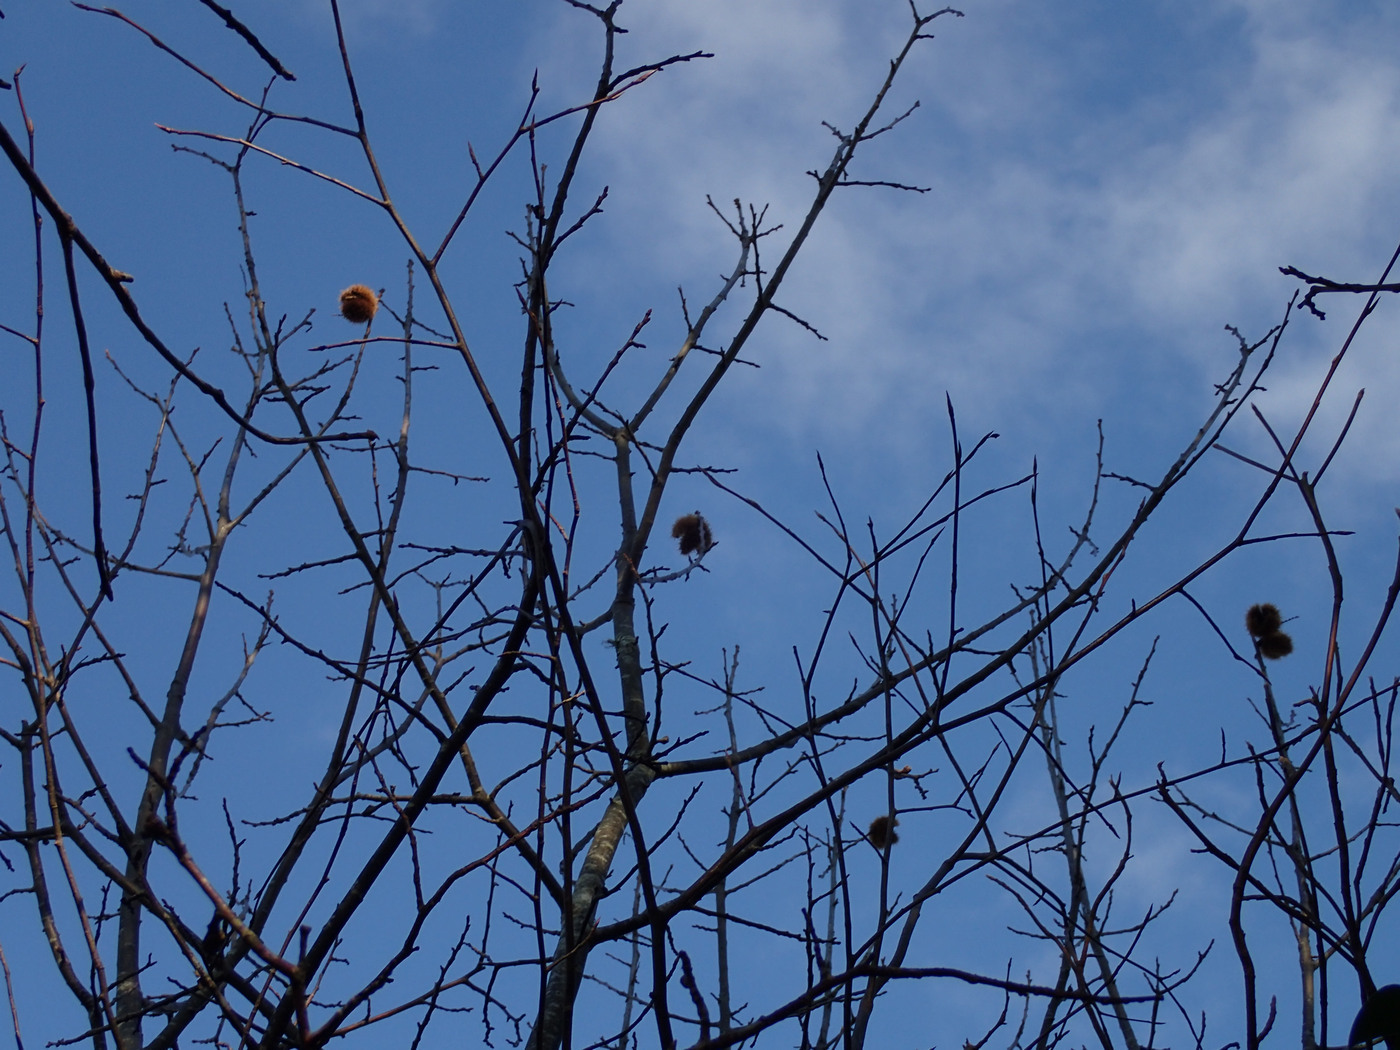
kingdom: Plantae
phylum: Tracheophyta
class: Magnoliopsida
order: Fagales
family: Fagaceae
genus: Castanea
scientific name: Castanea dentata
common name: American chestnut
